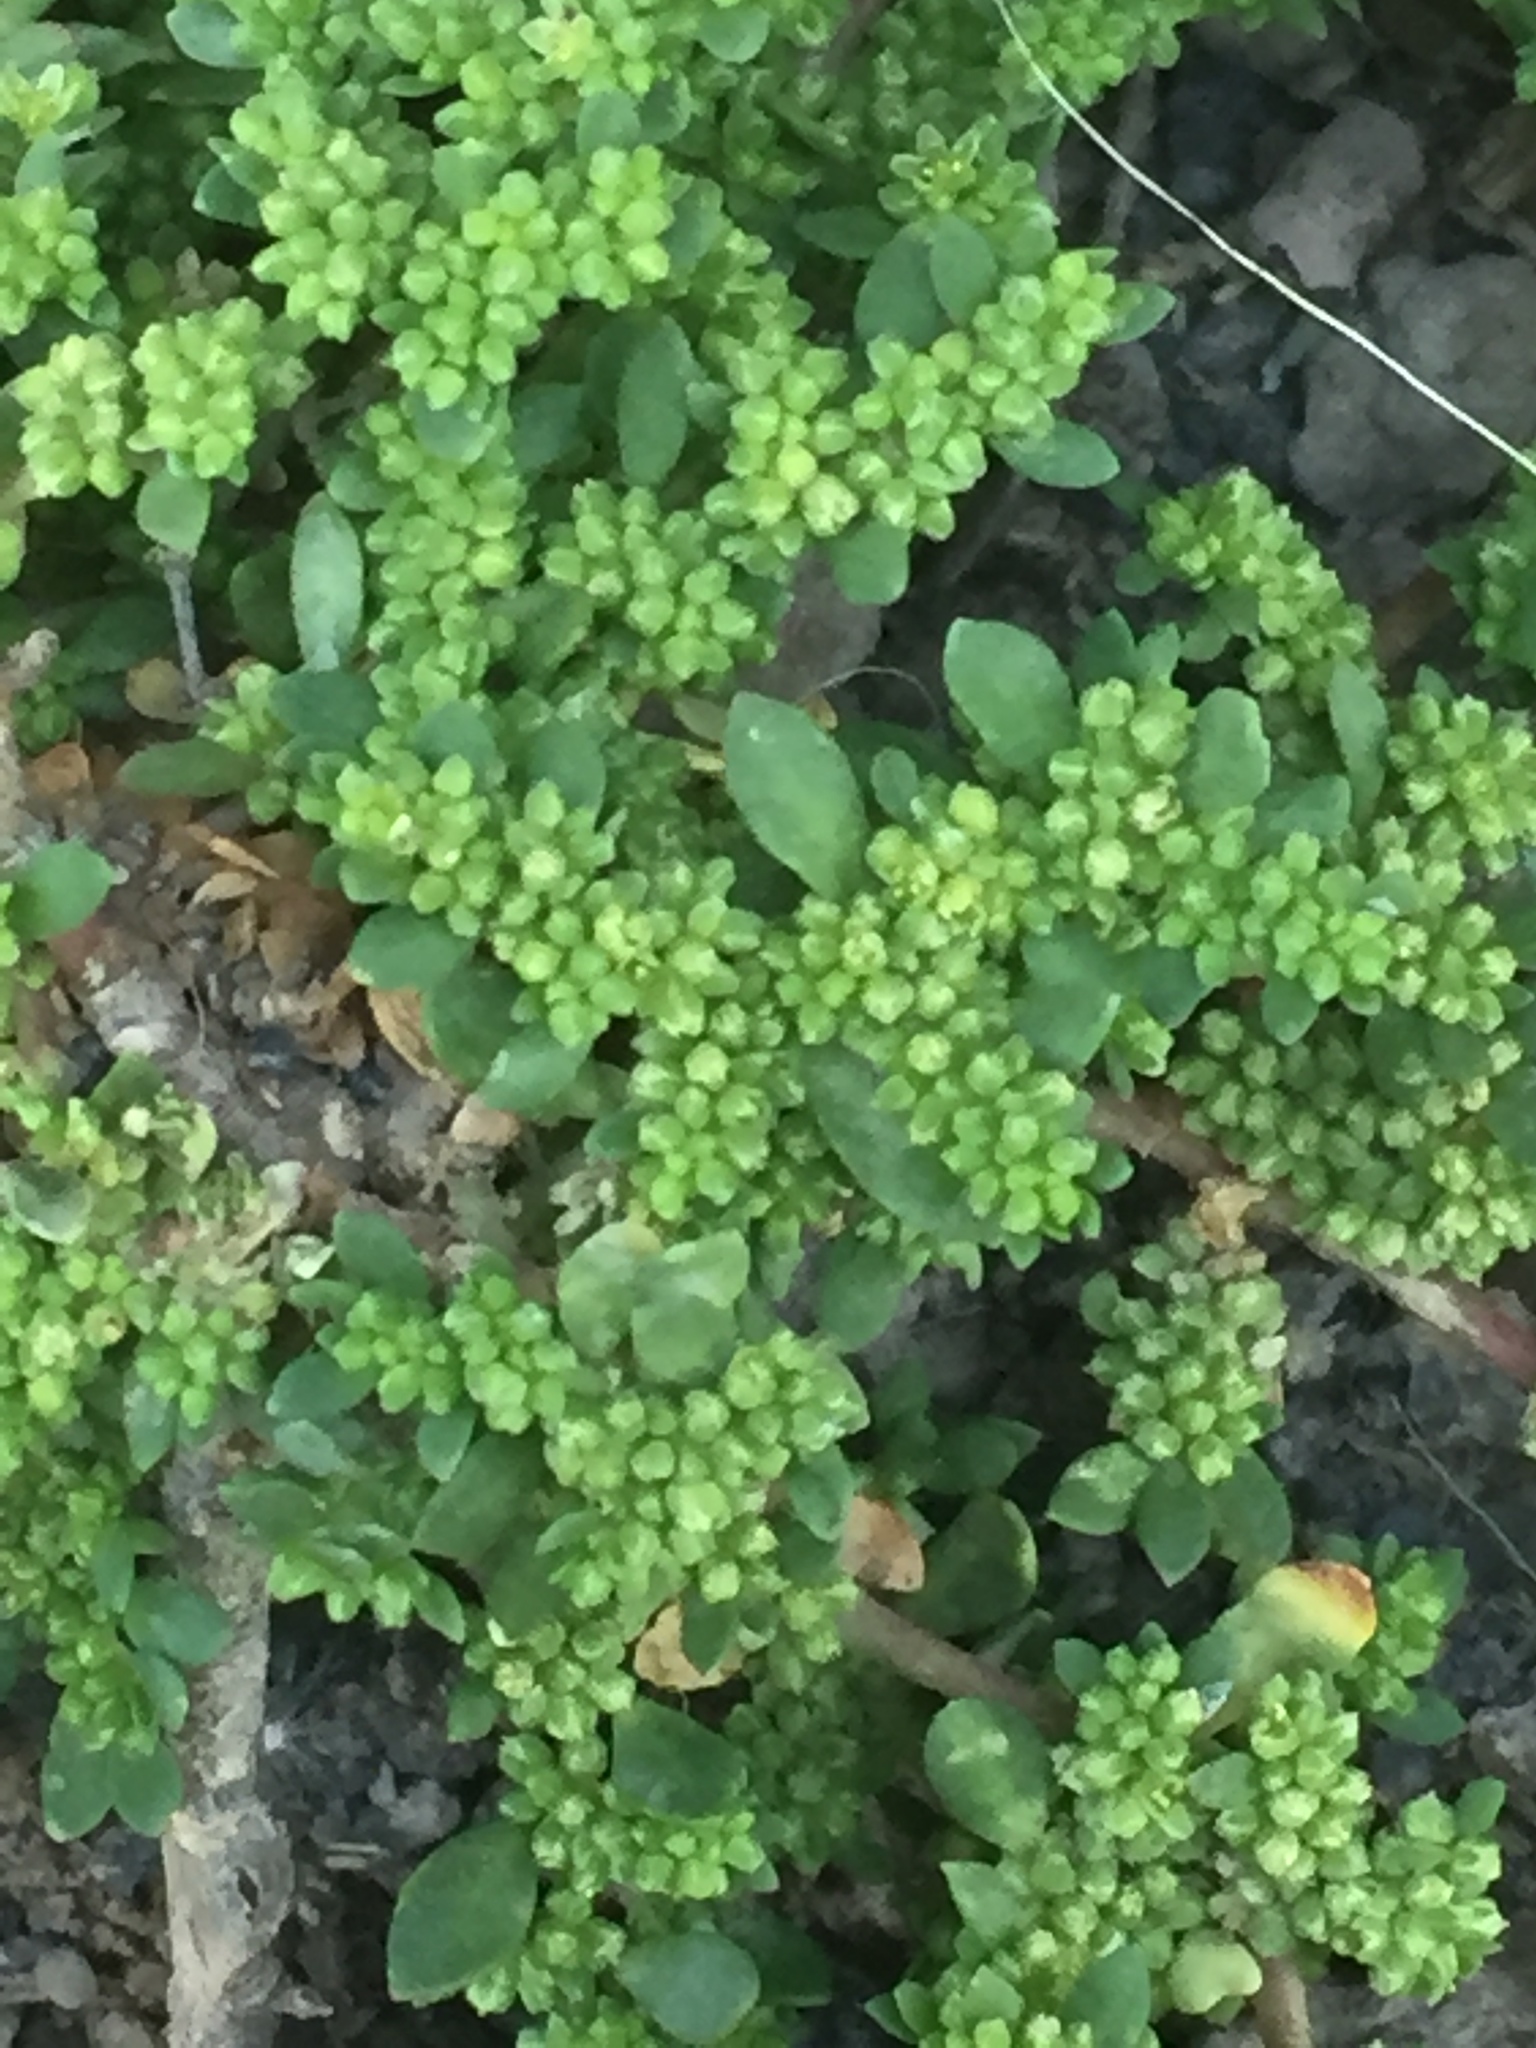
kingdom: Plantae
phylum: Tracheophyta
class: Magnoliopsida
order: Caryophyllales
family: Caryophyllaceae
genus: Herniaria
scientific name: Herniaria glabra
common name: Smooth rupturewort
